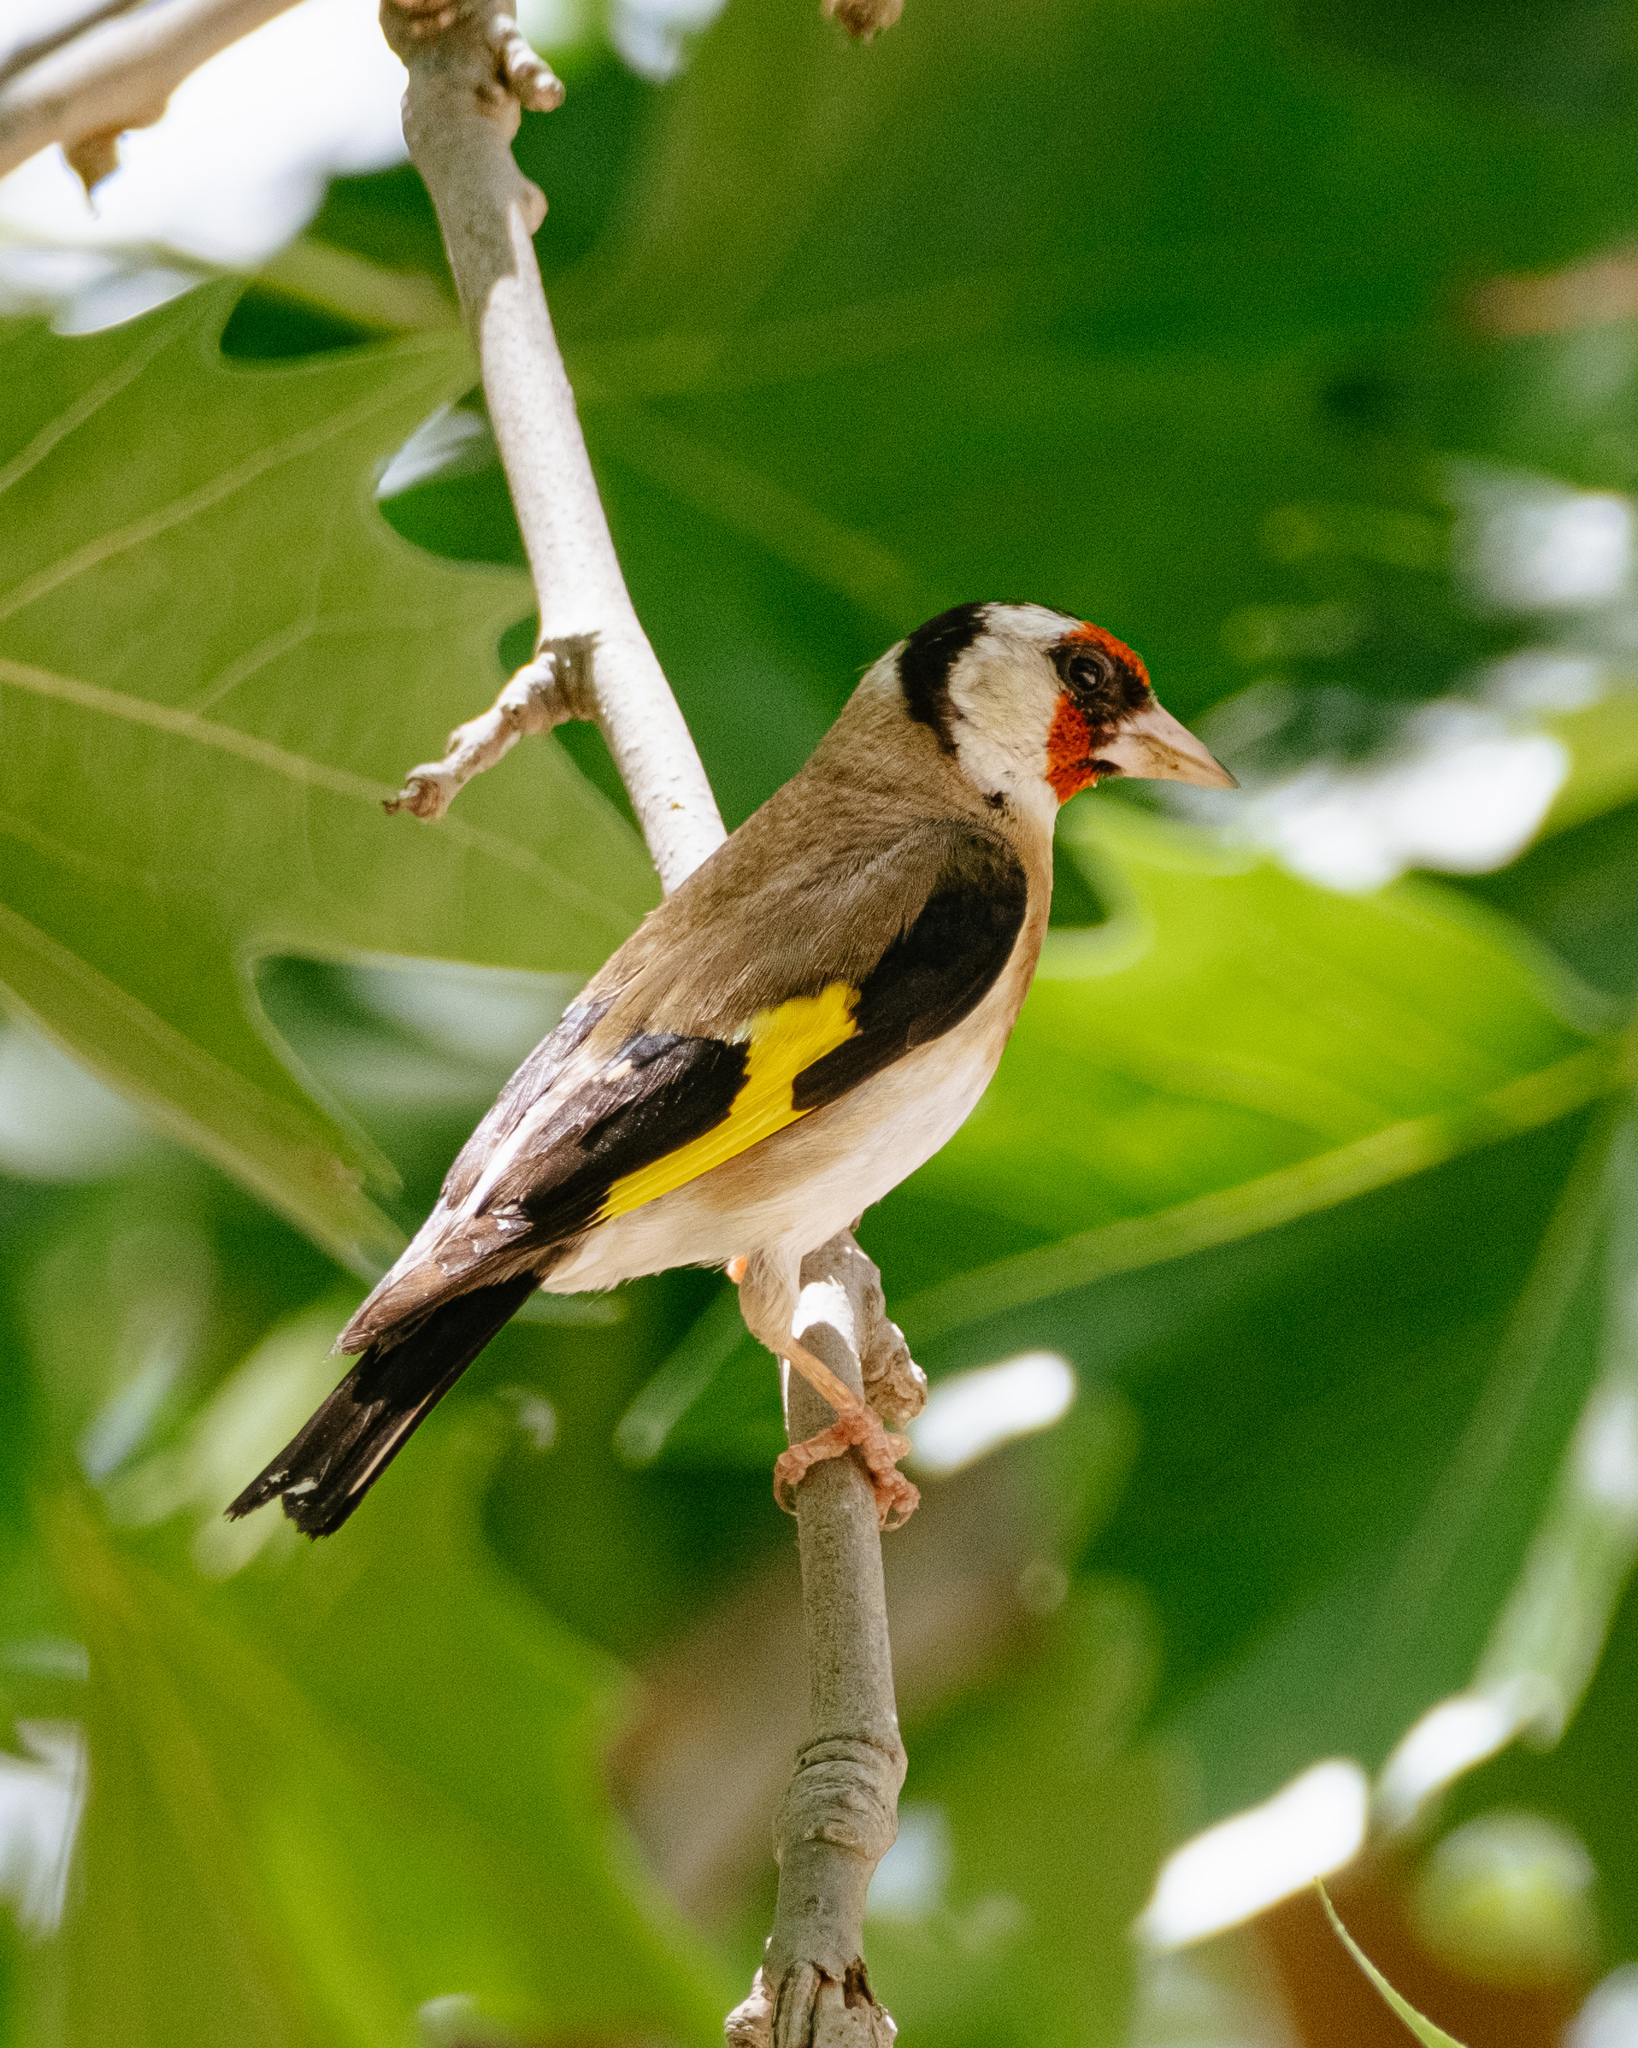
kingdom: Animalia
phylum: Chordata
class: Aves
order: Passeriformes
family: Fringillidae
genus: Carduelis
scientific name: Carduelis carduelis
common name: European goldfinch
